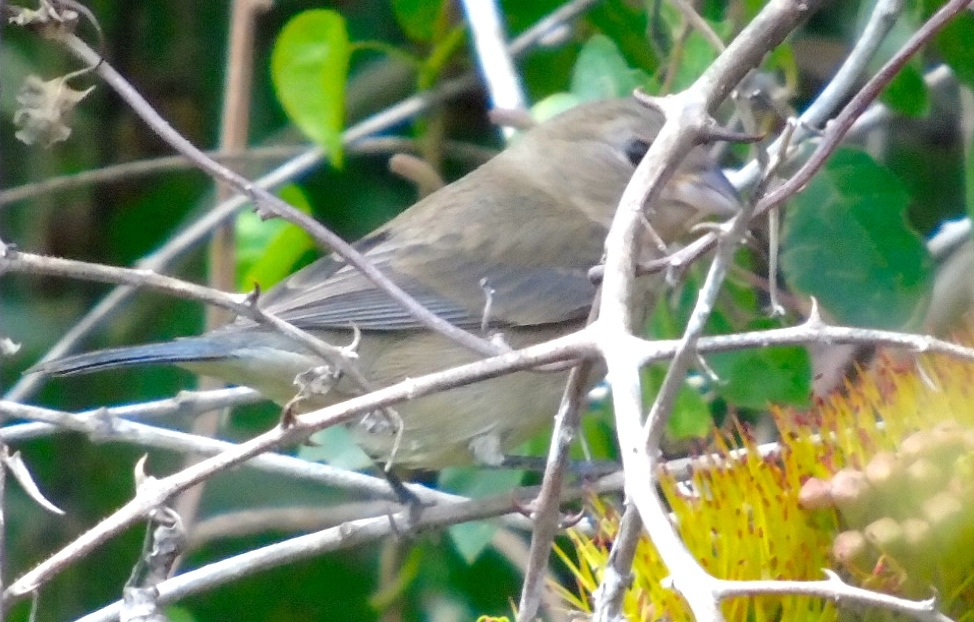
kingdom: Animalia
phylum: Chordata
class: Aves
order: Passeriformes
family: Cardinalidae
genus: Passerina
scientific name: Passerina cyanea
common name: Indigo bunting
